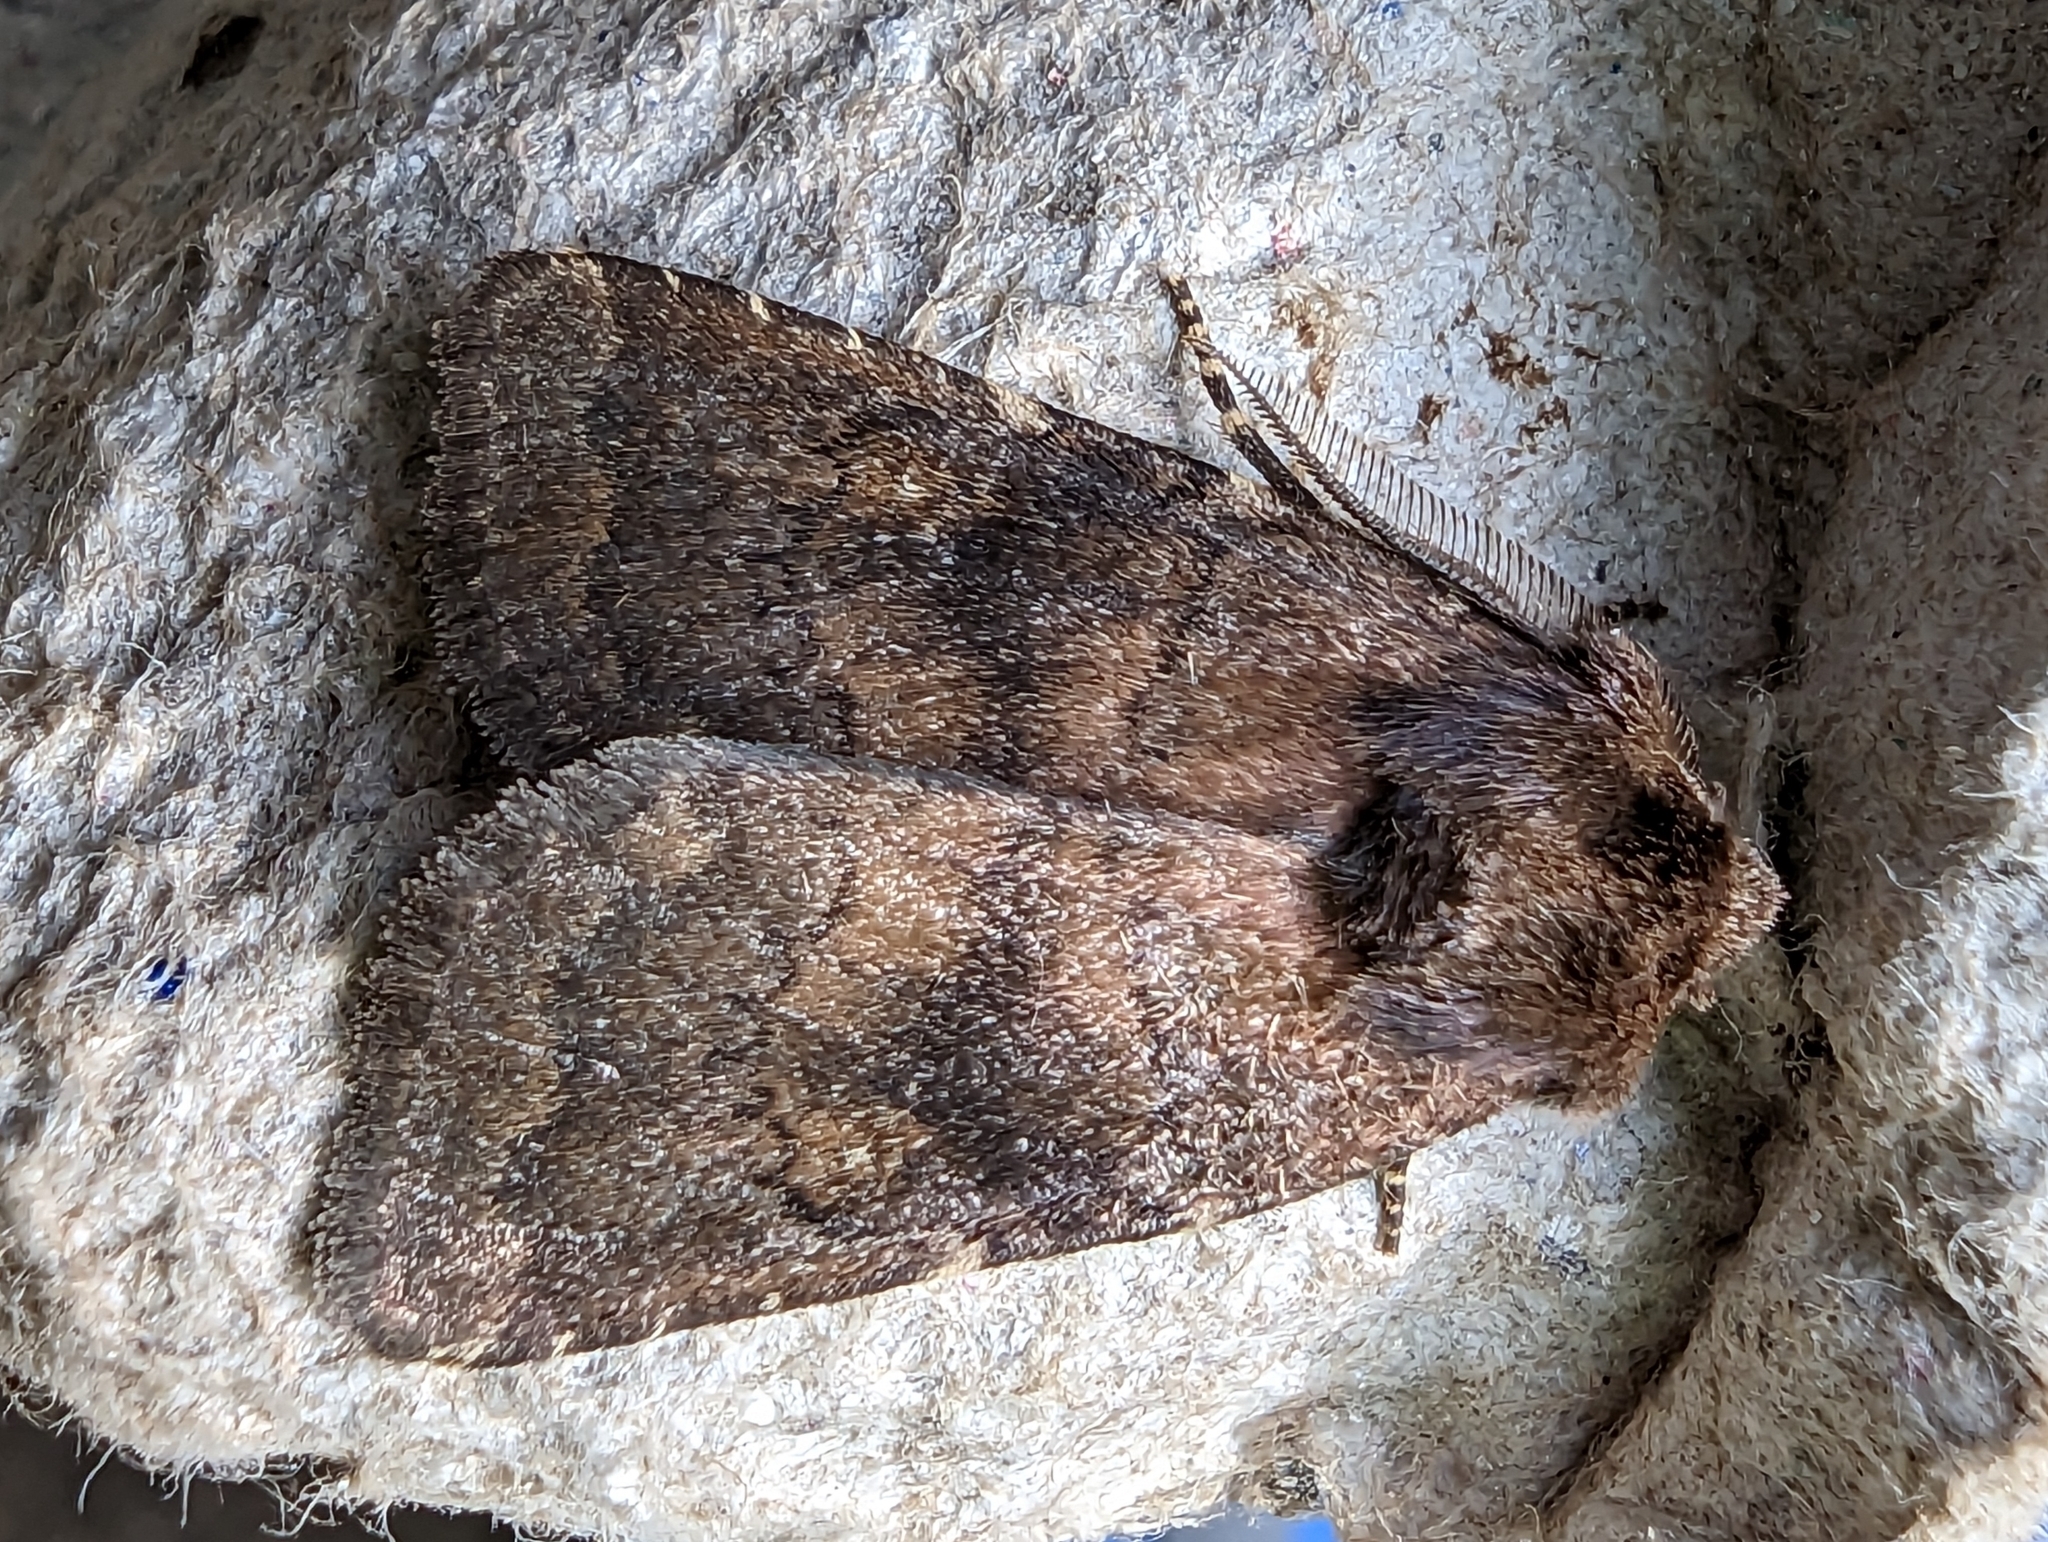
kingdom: Animalia
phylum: Arthropoda
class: Insecta
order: Lepidoptera
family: Noctuidae
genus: Charanyca
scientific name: Charanyca ferruginea
